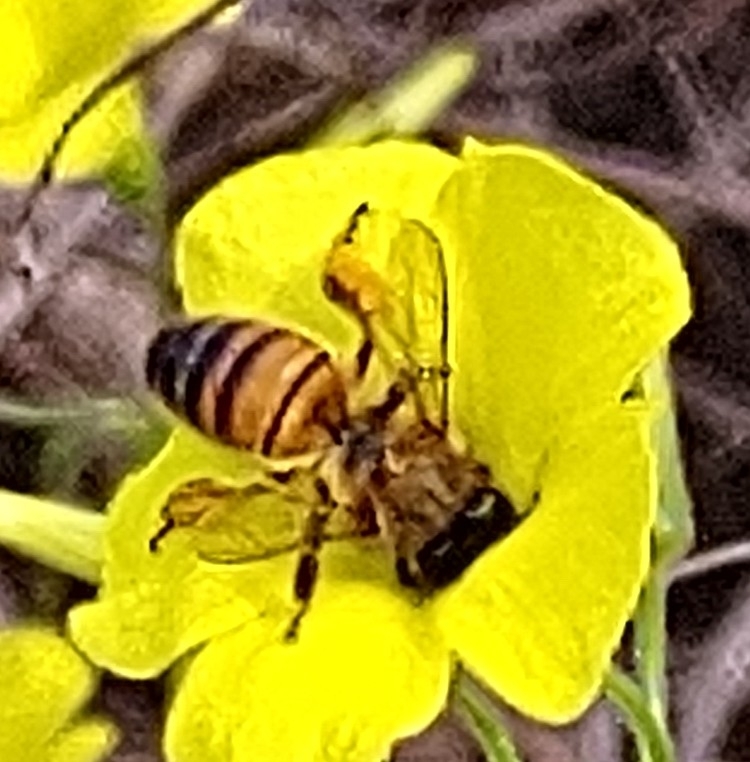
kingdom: Animalia
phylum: Arthropoda
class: Insecta
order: Hymenoptera
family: Apidae
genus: Apis
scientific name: Apis mellifera
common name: Honey bee
